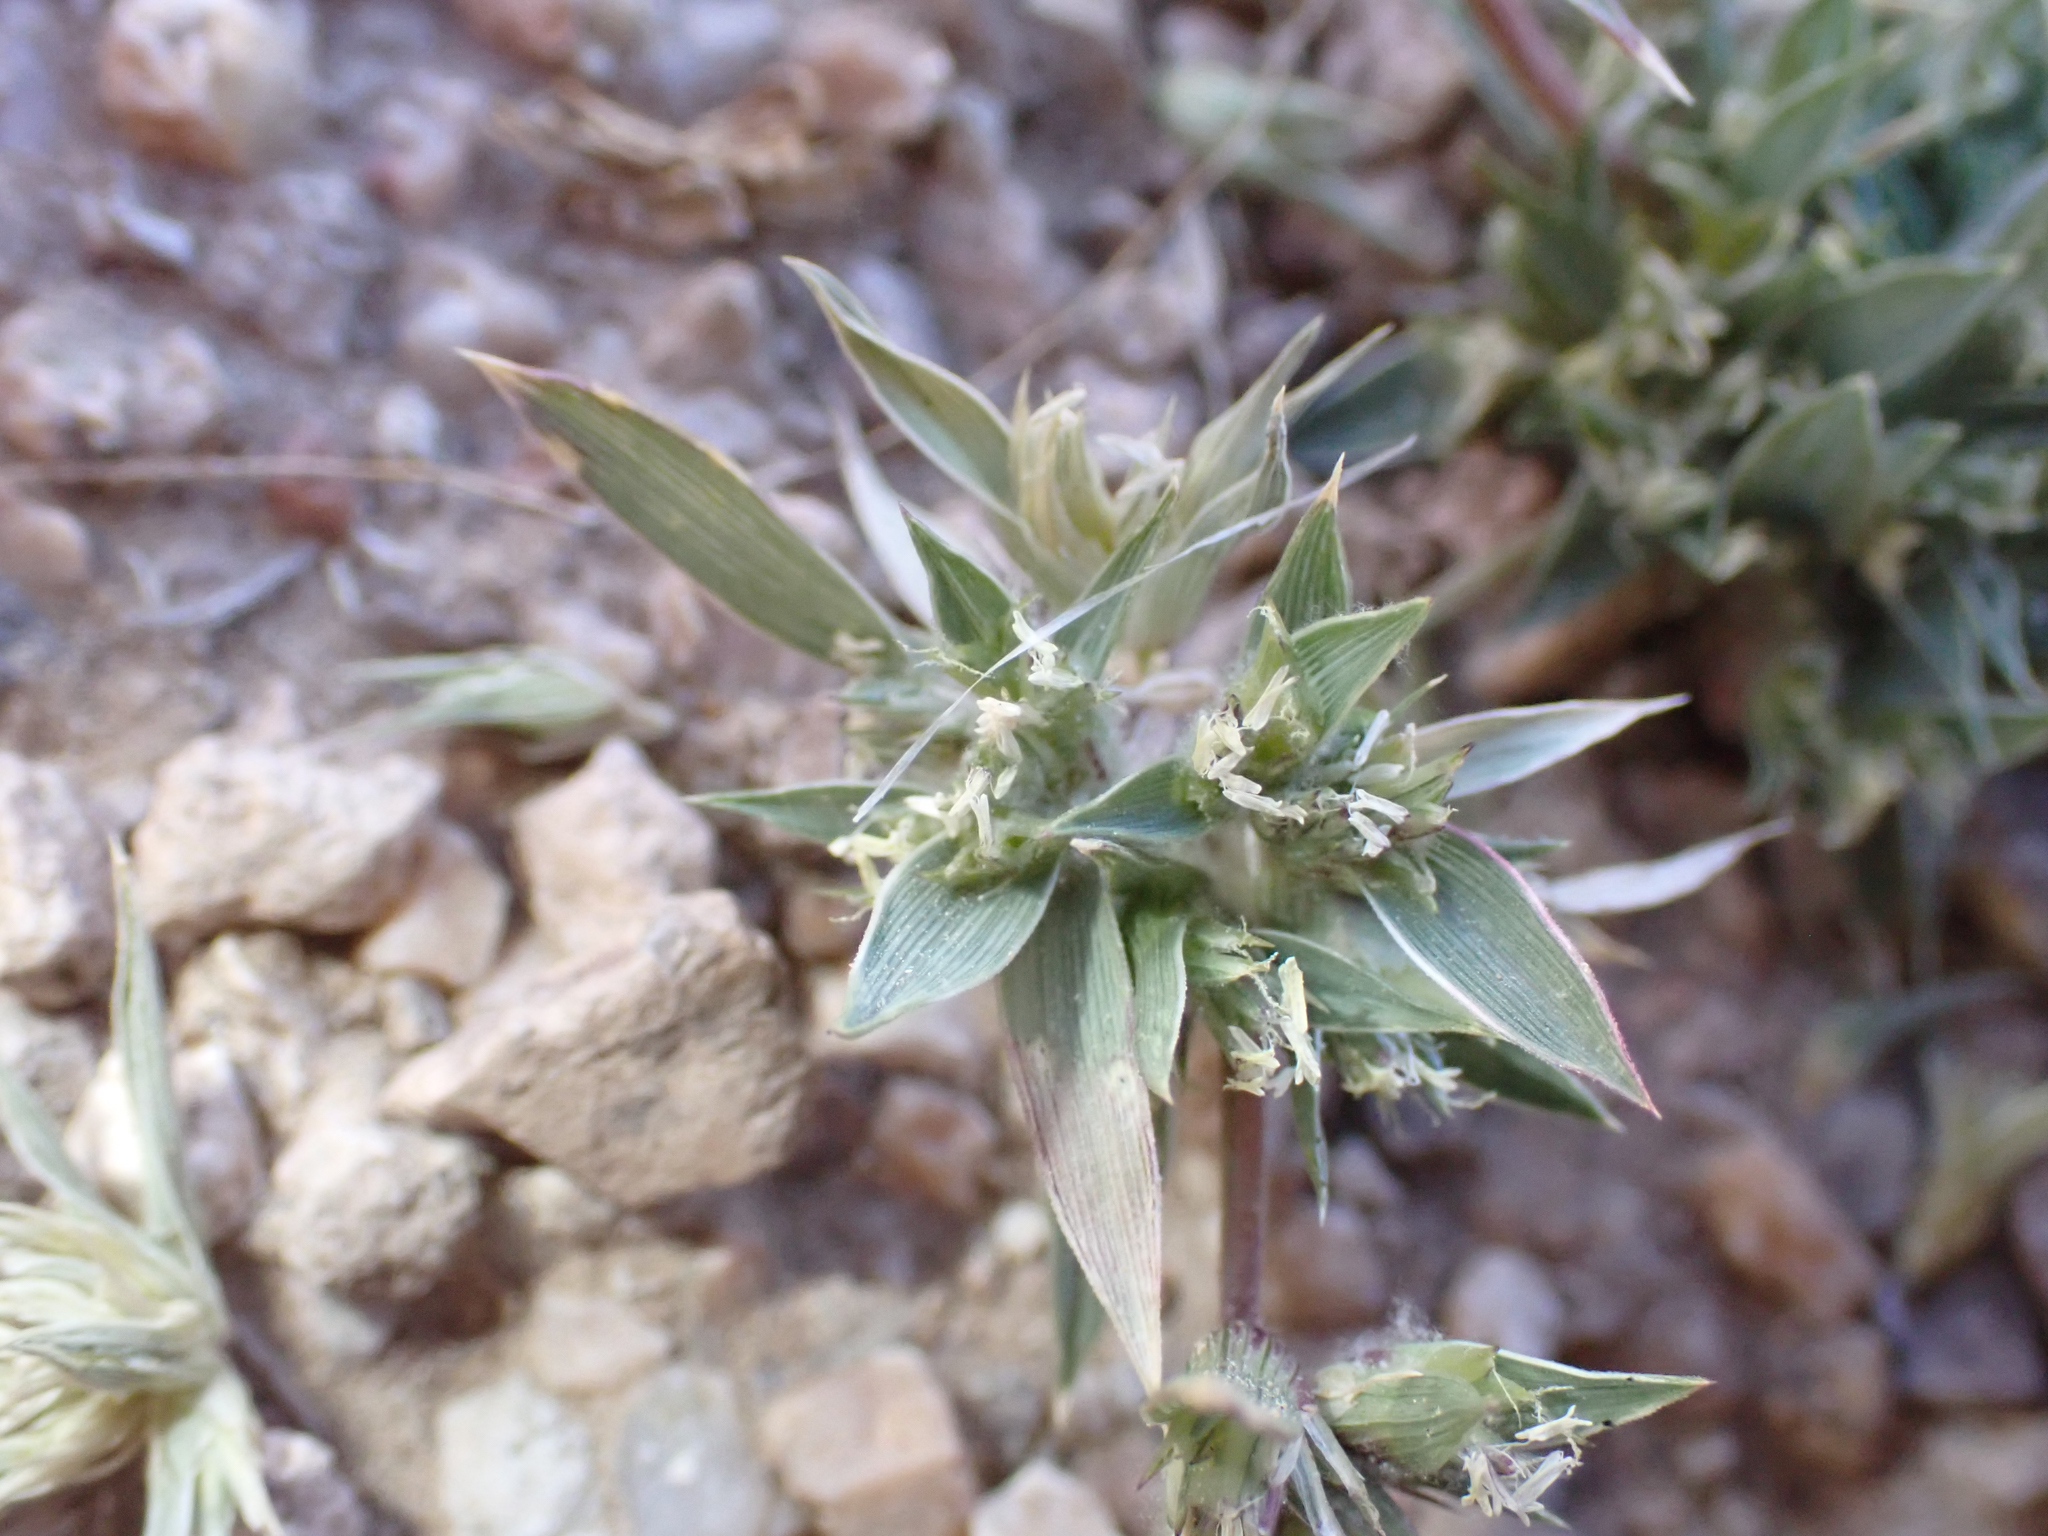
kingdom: Plantae
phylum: Tracheophyta
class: Liliopsida
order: Poales
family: Poaceae
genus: Munroa
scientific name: Munroa squarrosa
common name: False buffalo grass
